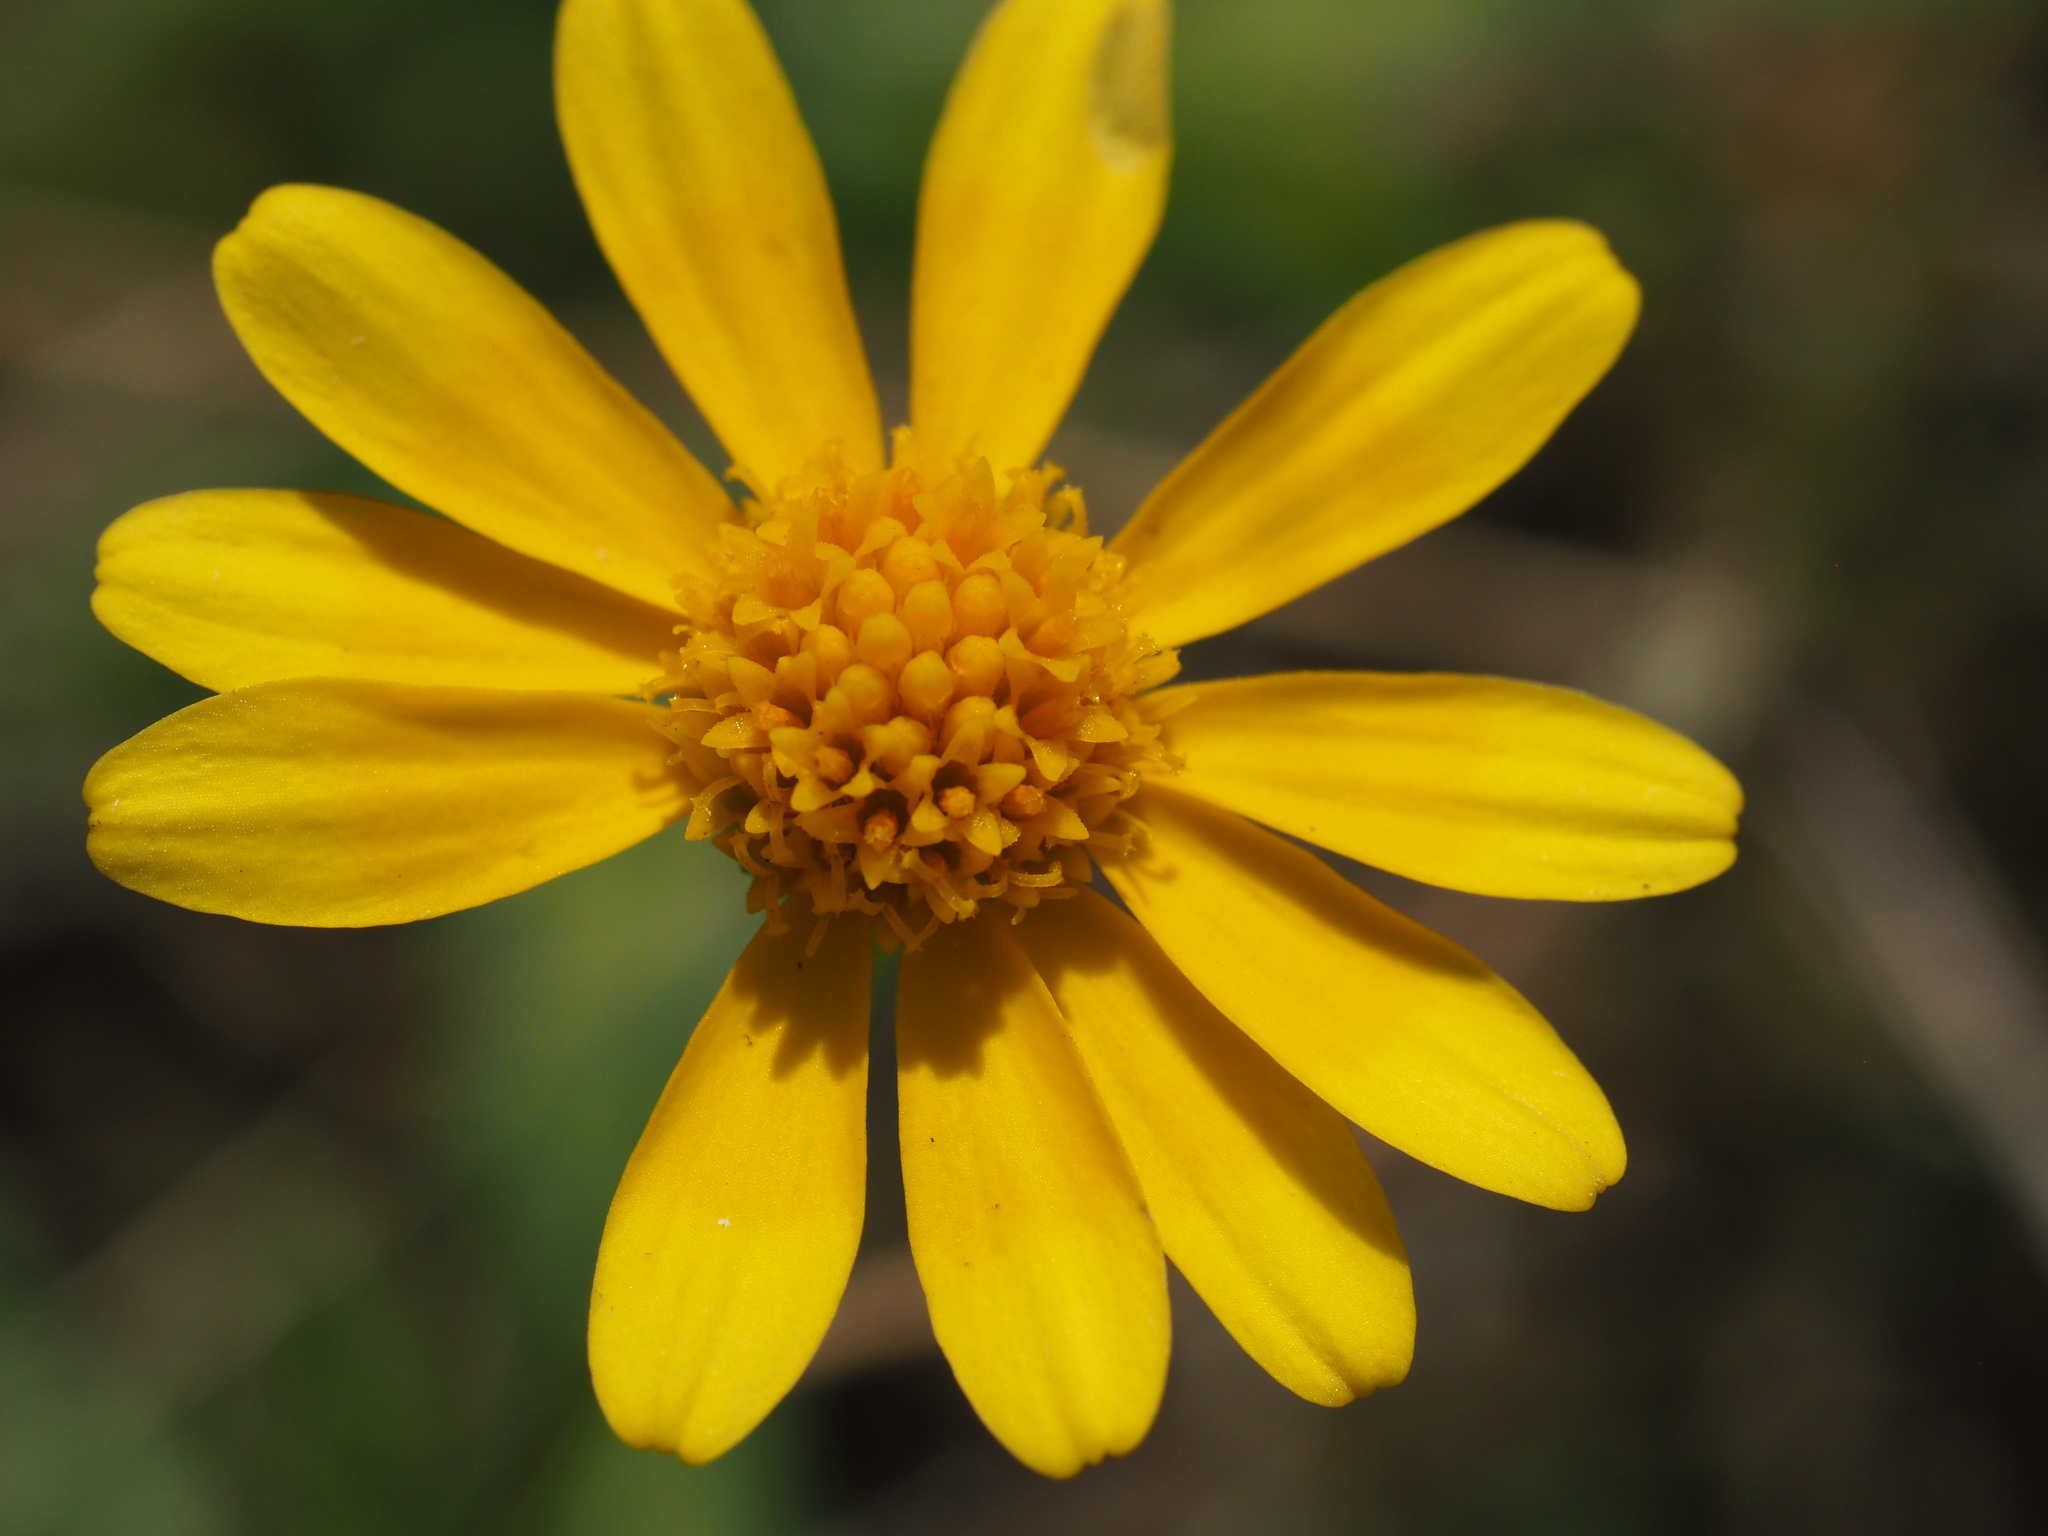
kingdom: Plantae
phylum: Tracheophyta
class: Magnoliopsida
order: Asterales
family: Asteraceae
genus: Thymophylla
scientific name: Thymophylla tenuiloba
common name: Dahlberg's daisy
